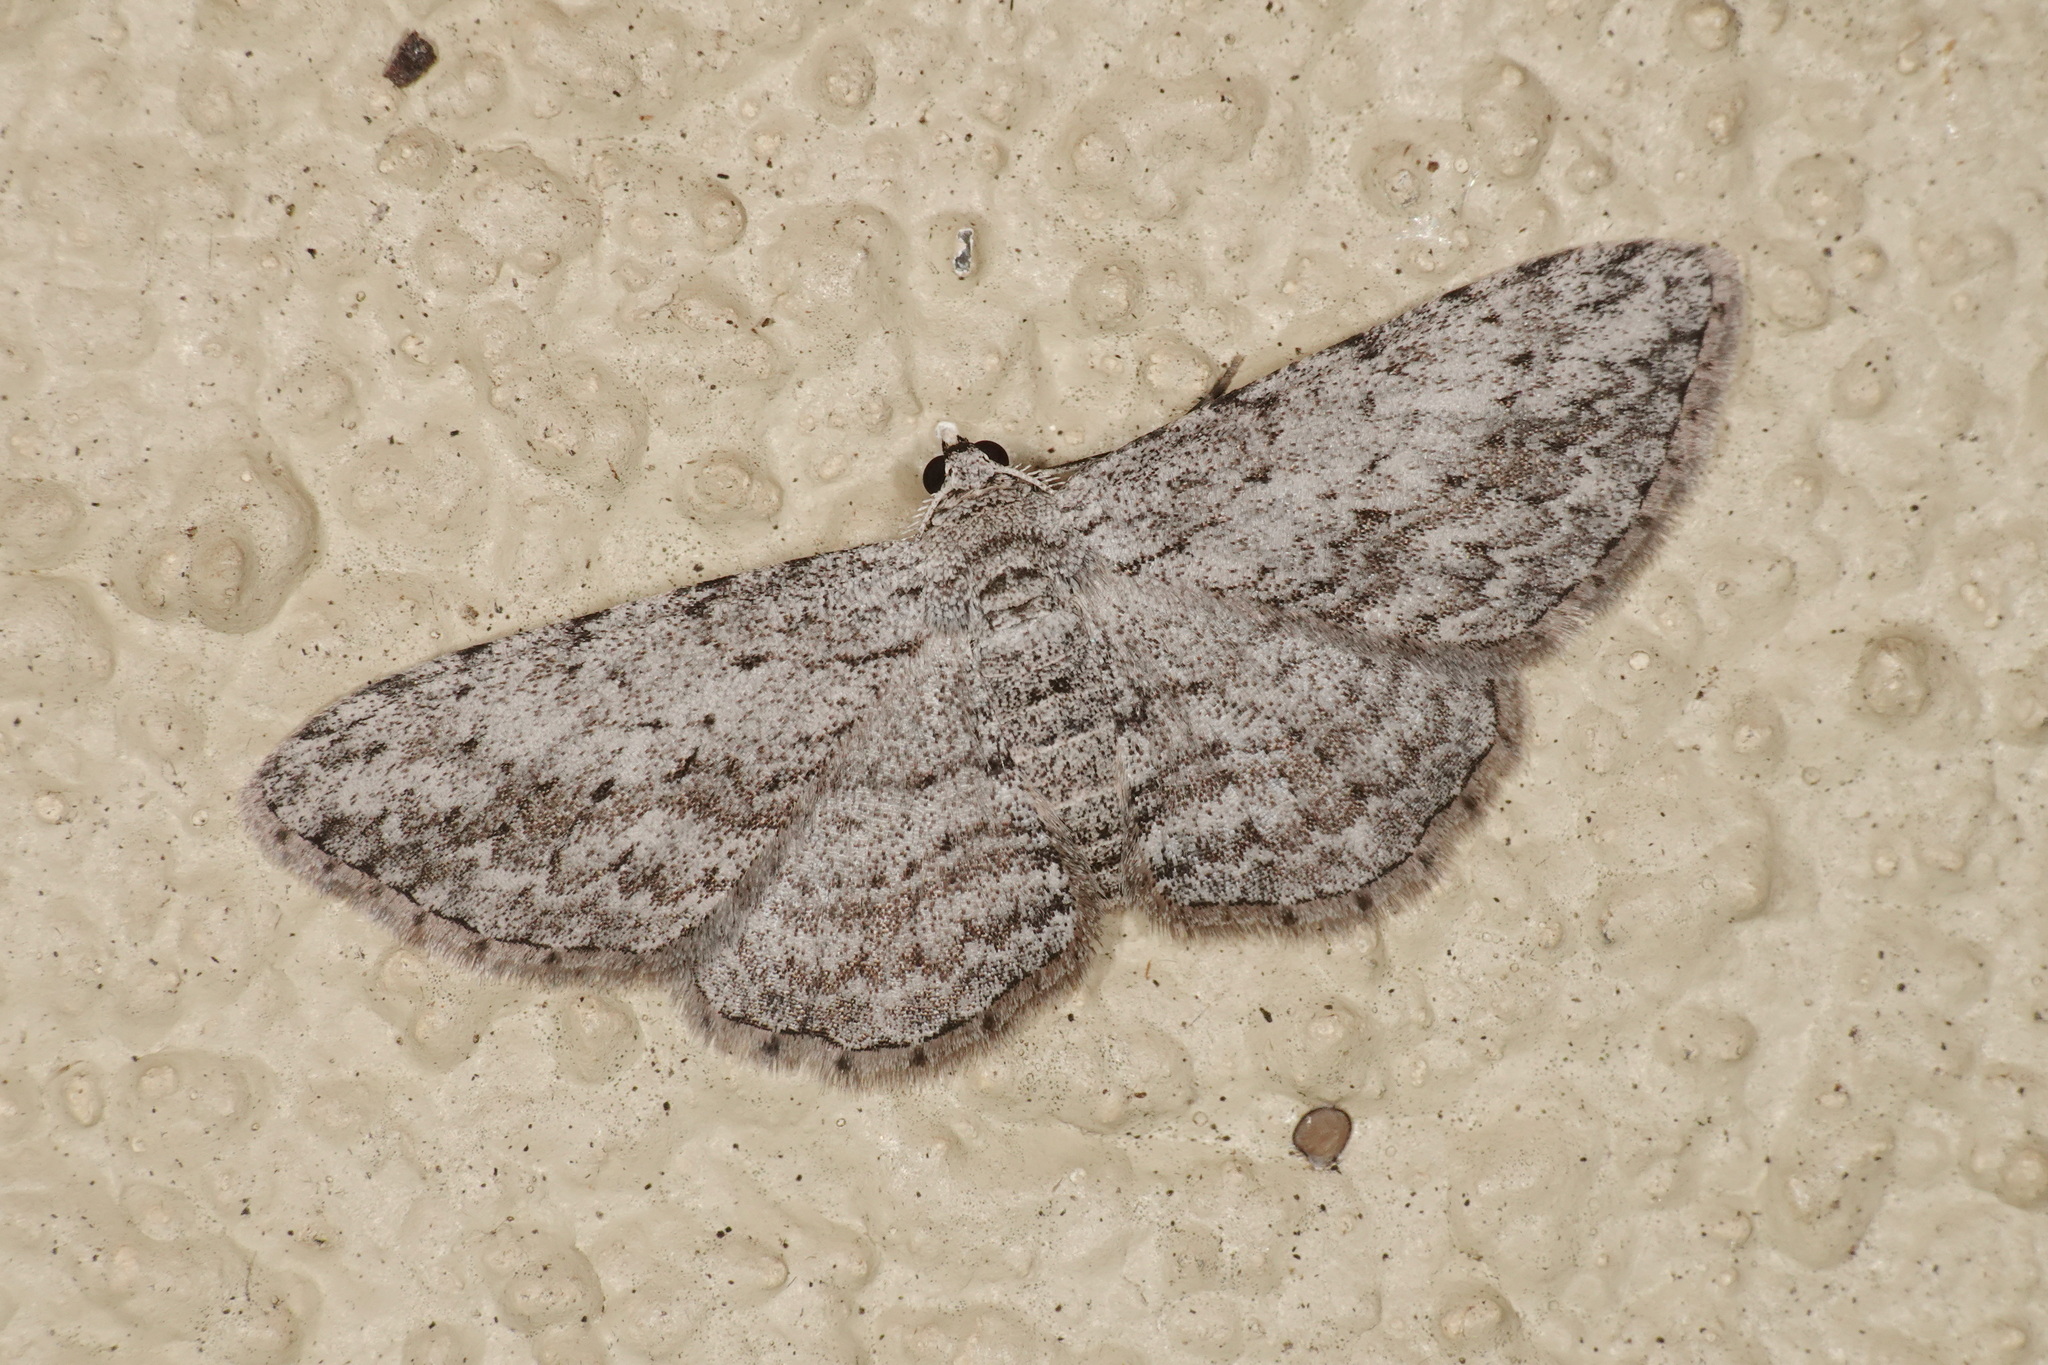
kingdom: Animalia
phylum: Arthropoda
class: Insecta
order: Lepidoptera
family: Geometridae
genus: Phelotis
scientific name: Phelotis cognata
